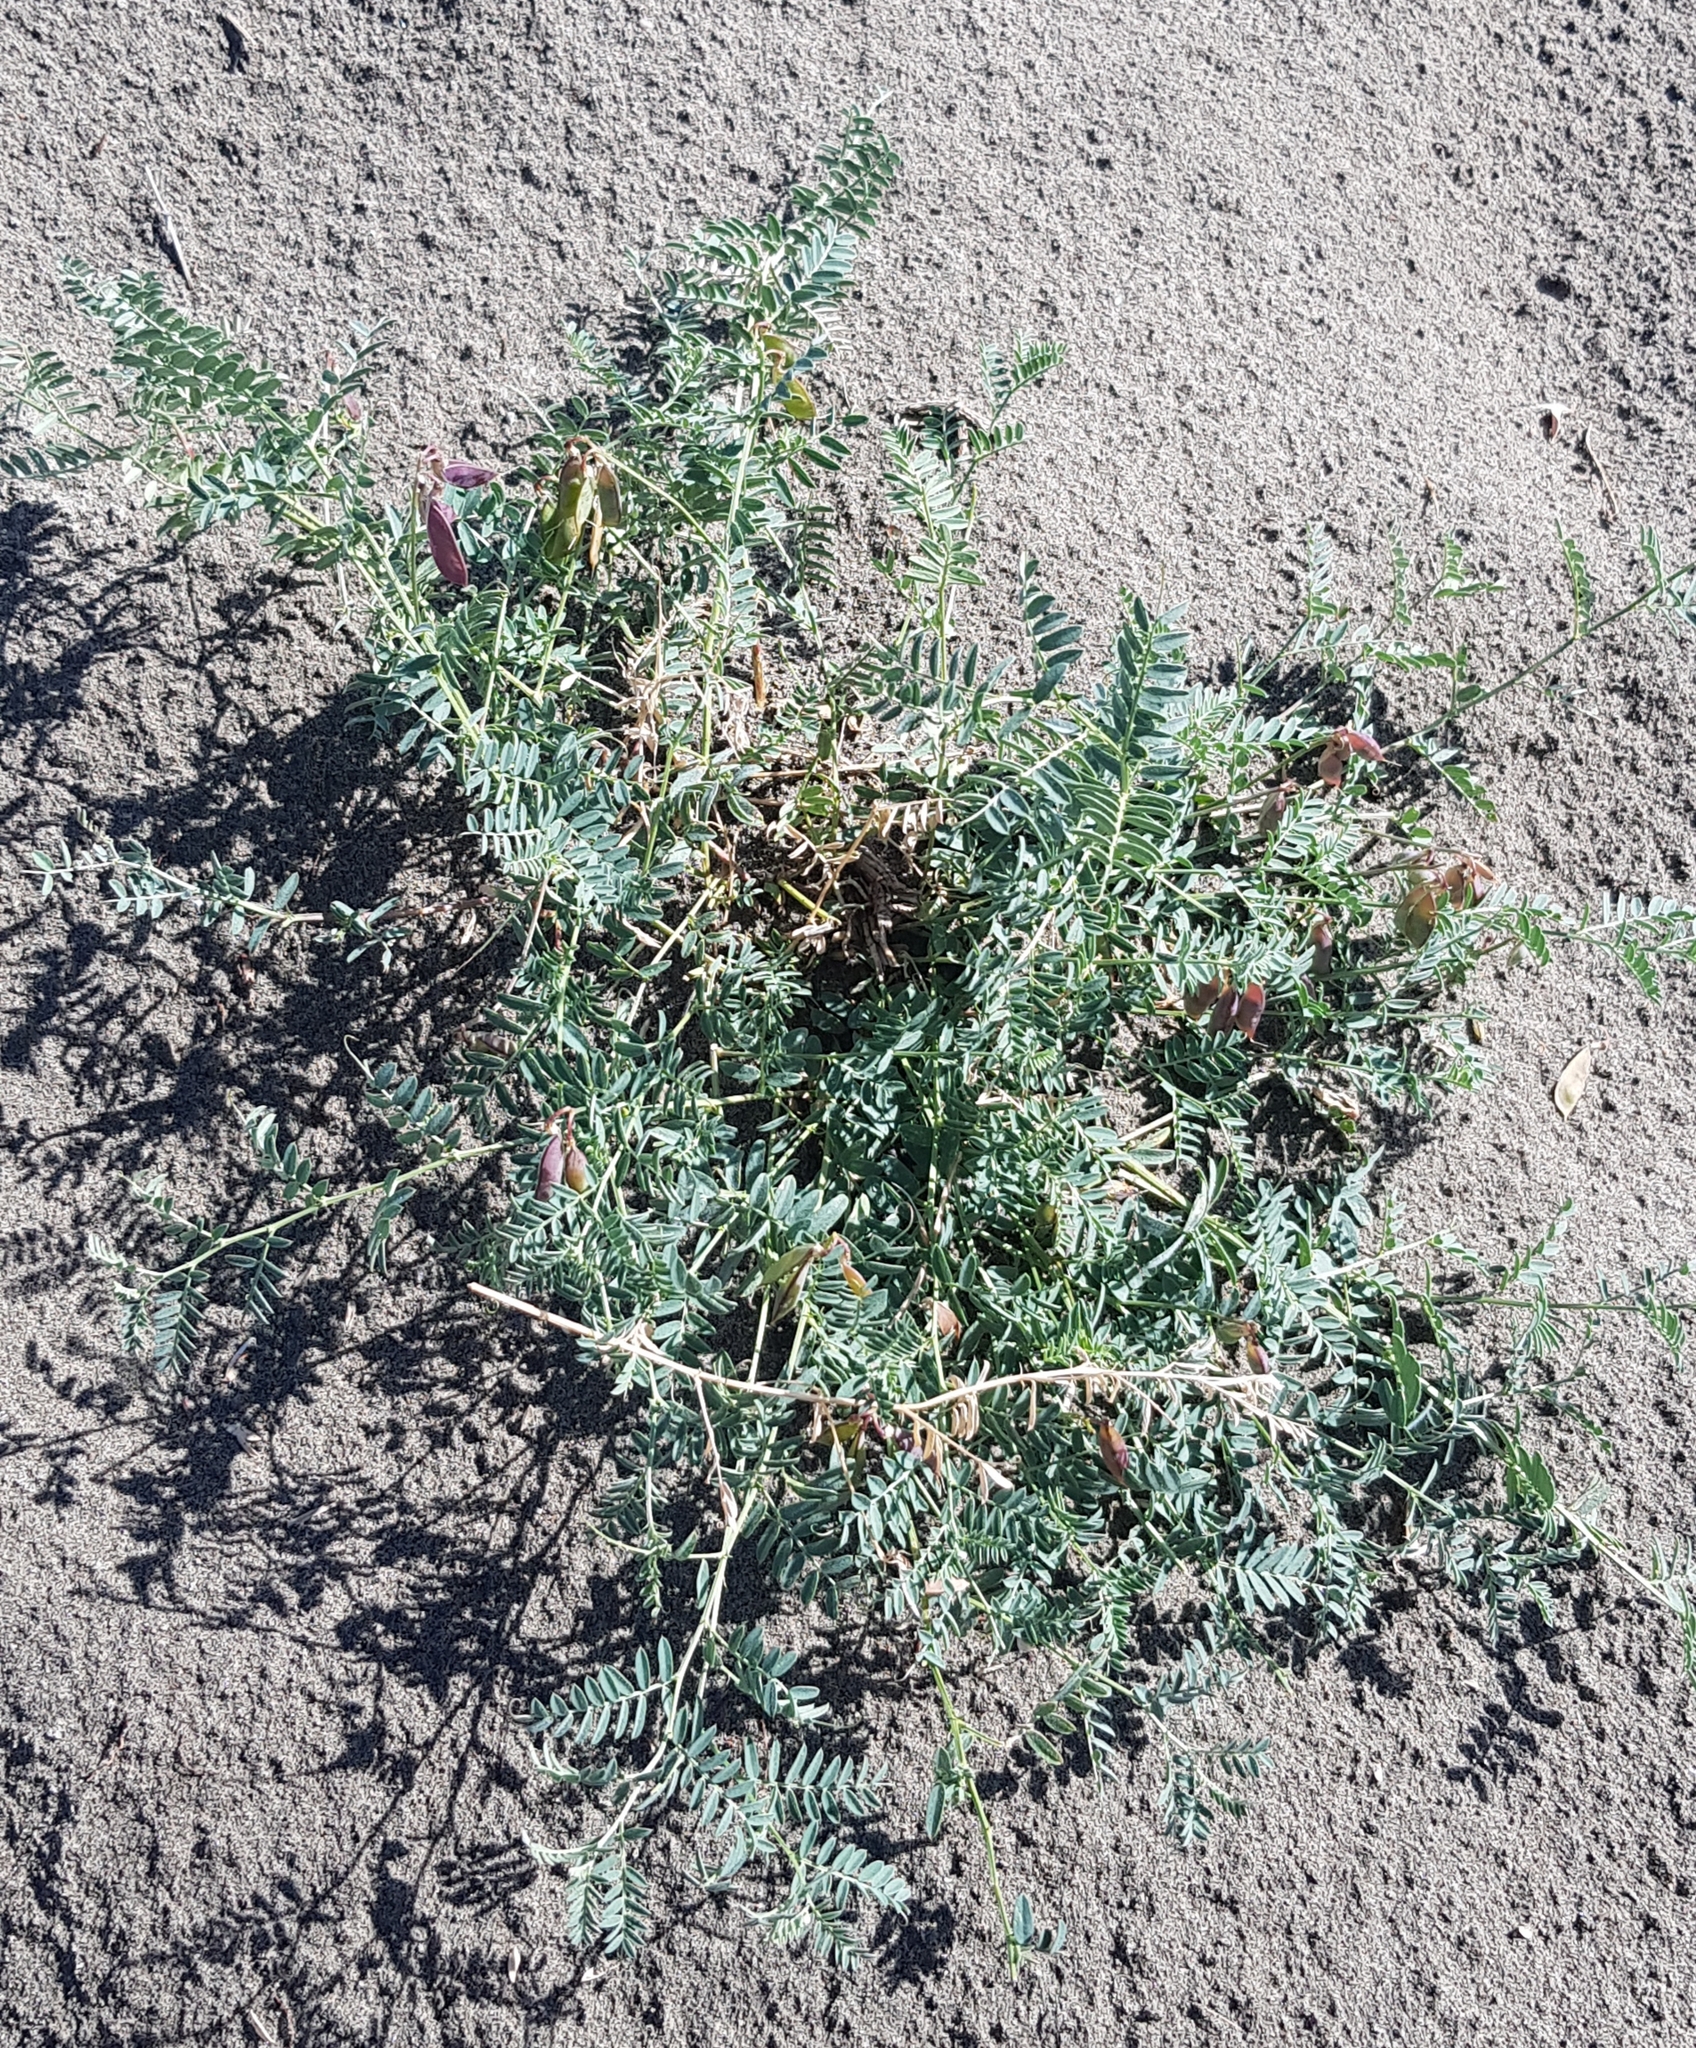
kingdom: Plantae
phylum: Tracheophyta
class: Magnoliopsida
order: Fabales
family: Fabaceae
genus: Lathyrus
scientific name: Lathyrus humilis
